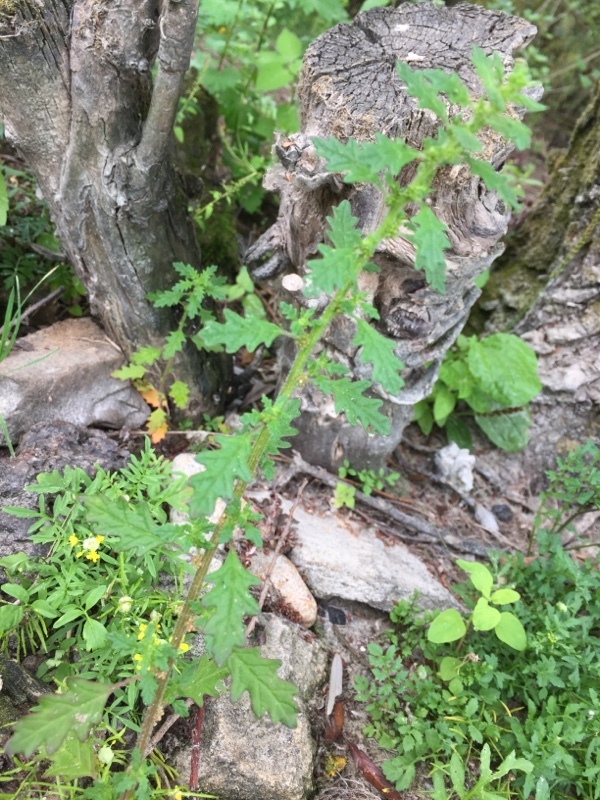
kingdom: Plantae
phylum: Tracheophyta
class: Magnoliopsida
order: Caryophyllales
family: Amaranthaceae
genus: Dysphania
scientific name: Dysphania pumilio
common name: Clammy goosefoot
